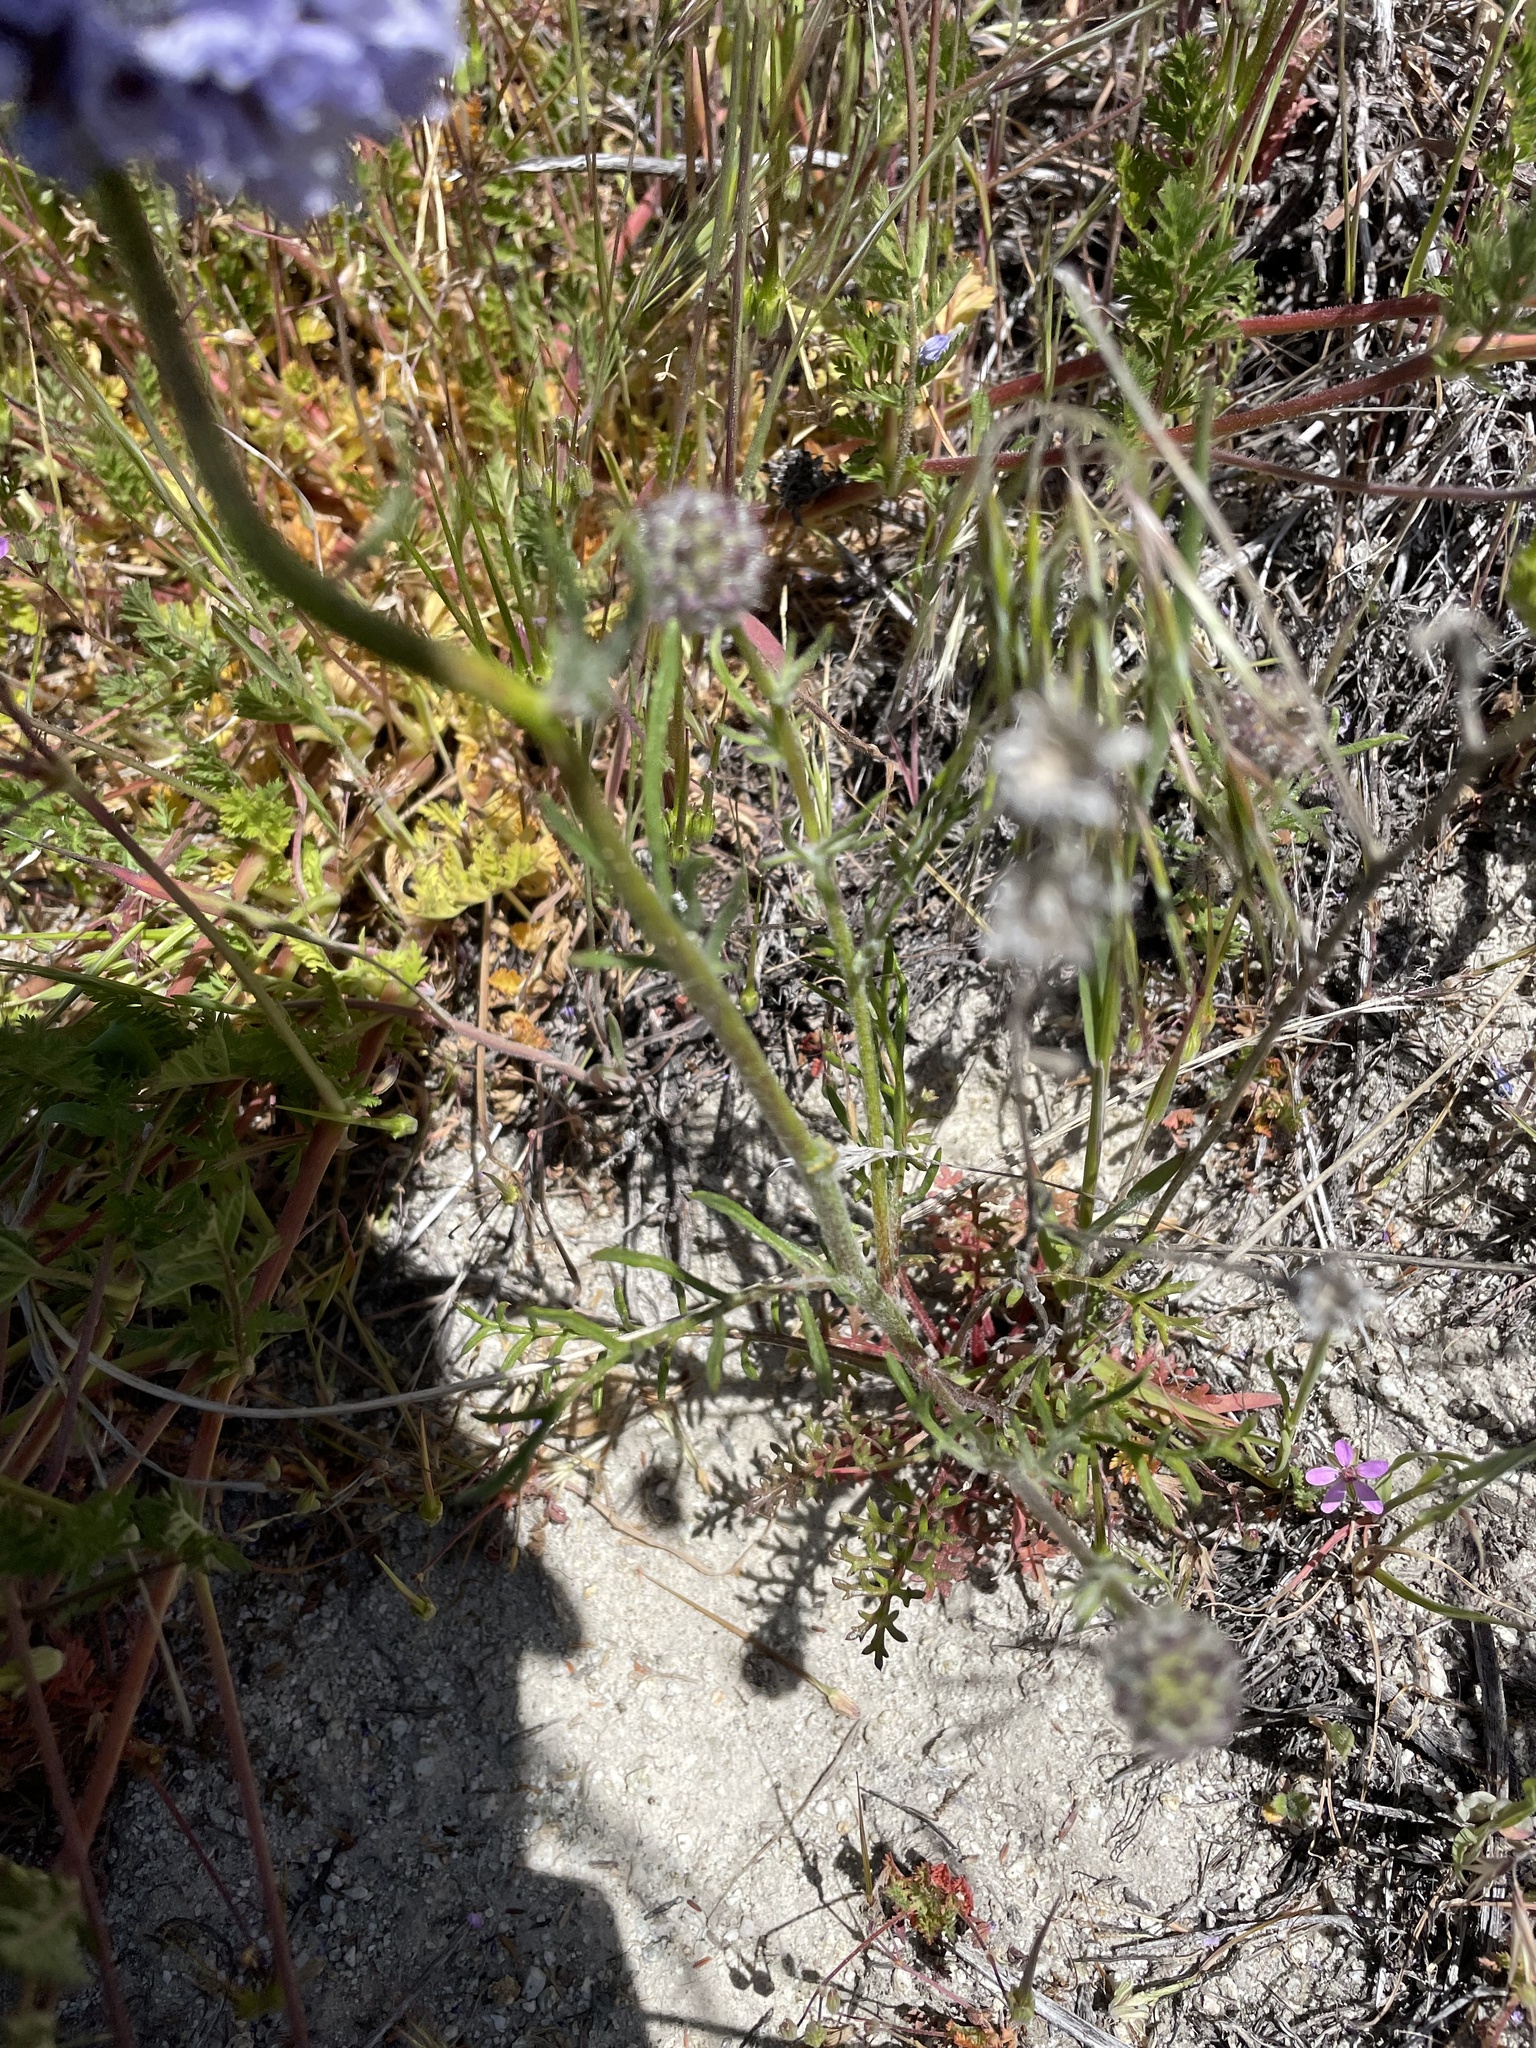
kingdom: Plantae
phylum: Tracheophyta
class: Magnoliopsida
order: Ericales
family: Polemoniaceae
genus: Gilia
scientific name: Gilia capitata
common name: Bluehead gilia
